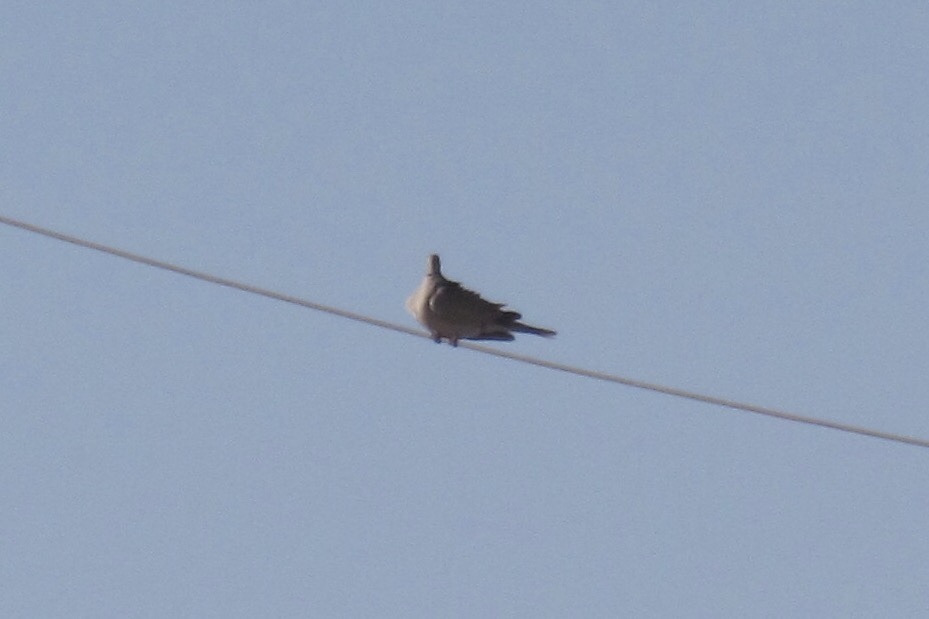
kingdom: Animalia
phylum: Chordata
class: Aves
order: Columbiformes
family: Columbidae
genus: Streptopelia
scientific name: Streptopelia decaocto
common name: Eurasian collared dove
